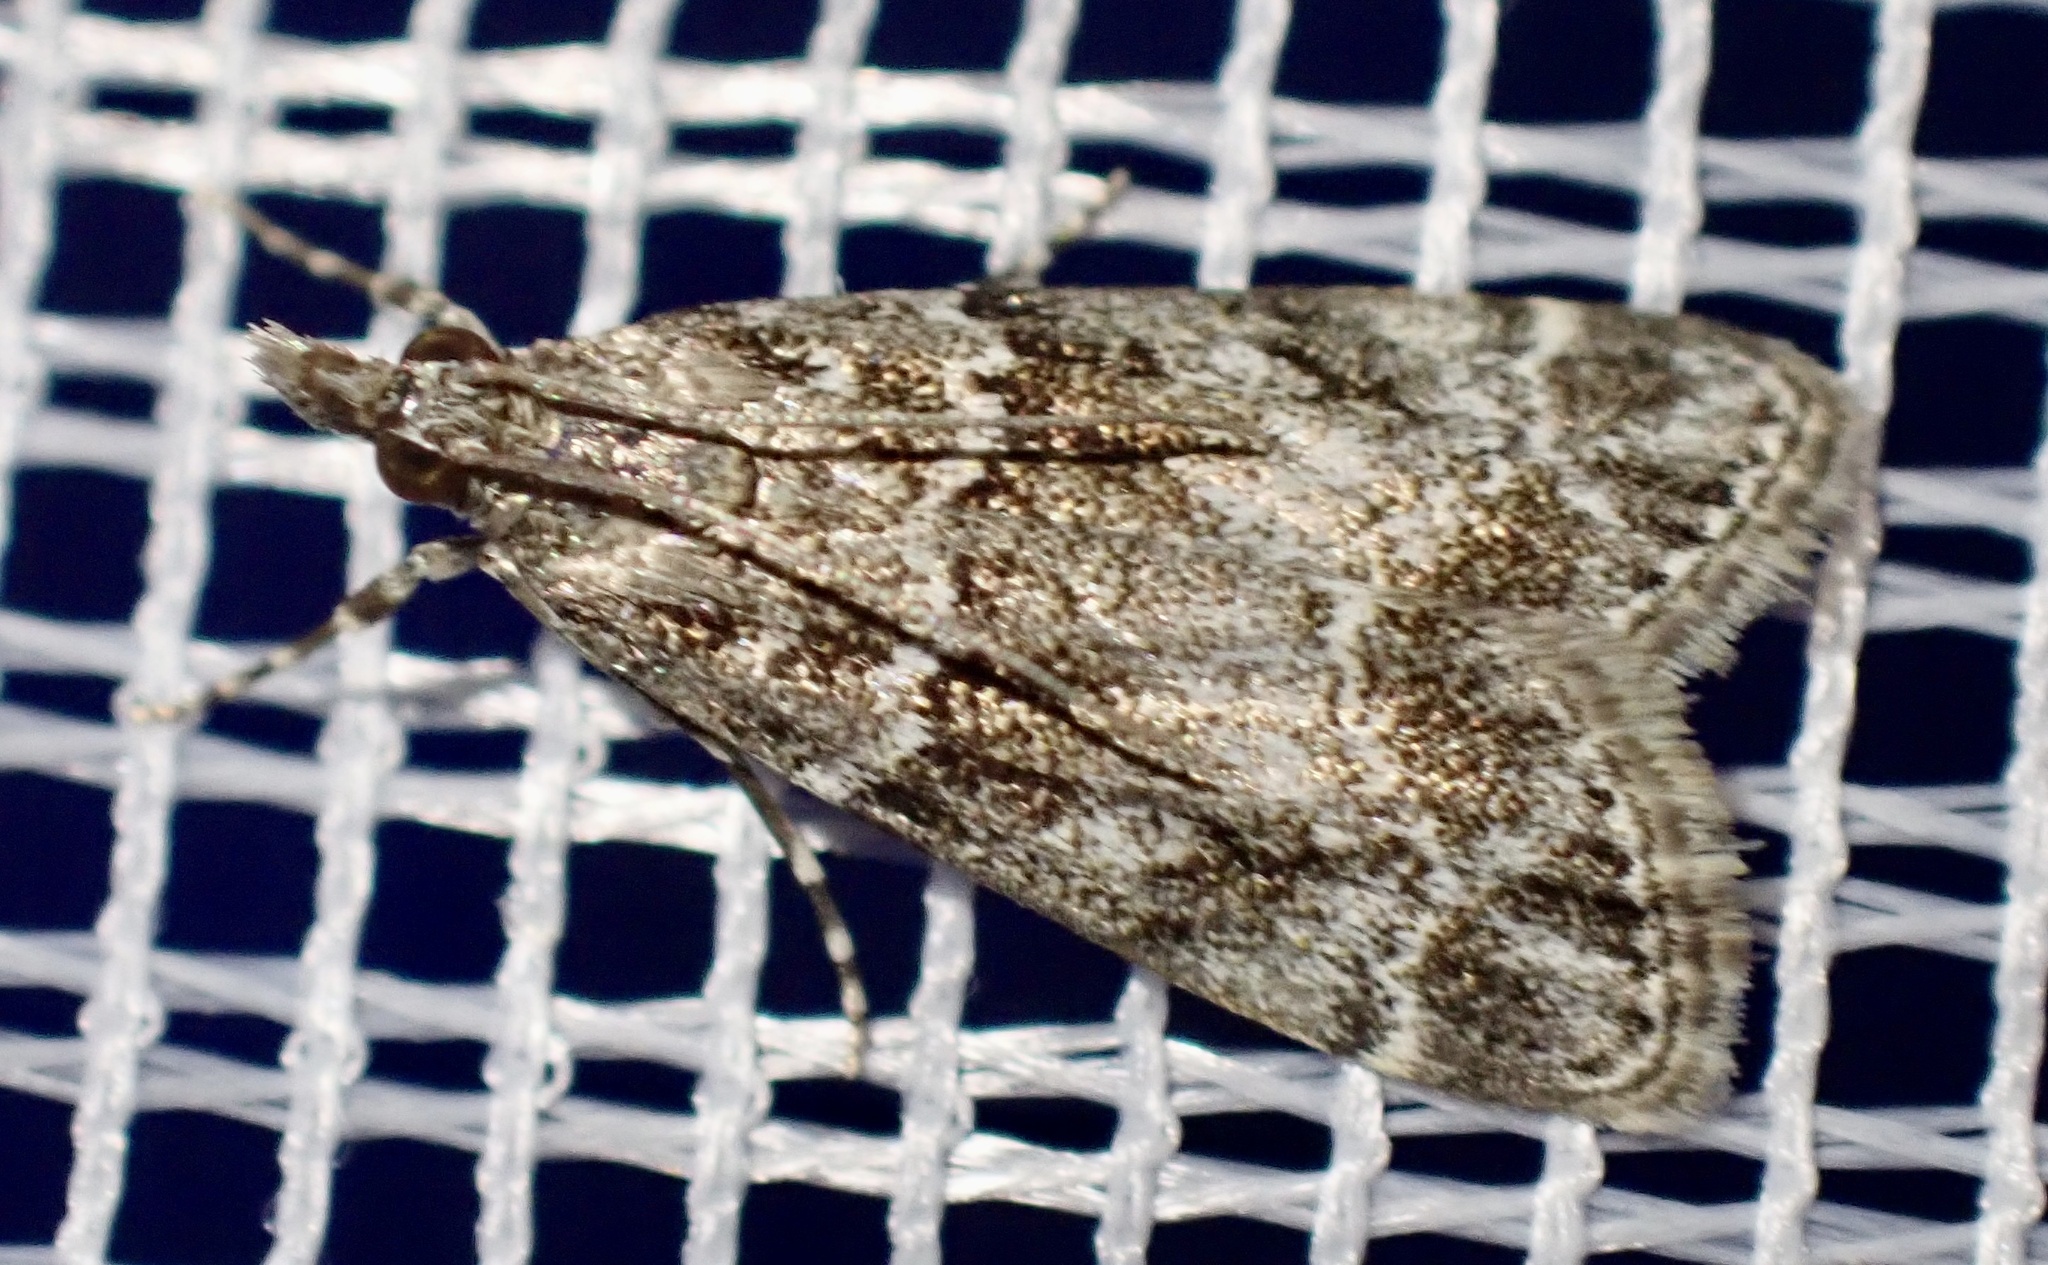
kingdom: Animalia
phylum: Arthropoda
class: Insecta
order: Lepidoptera
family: Crambidae
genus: Eudonia
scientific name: Eudonia mercurella
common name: Small grey
